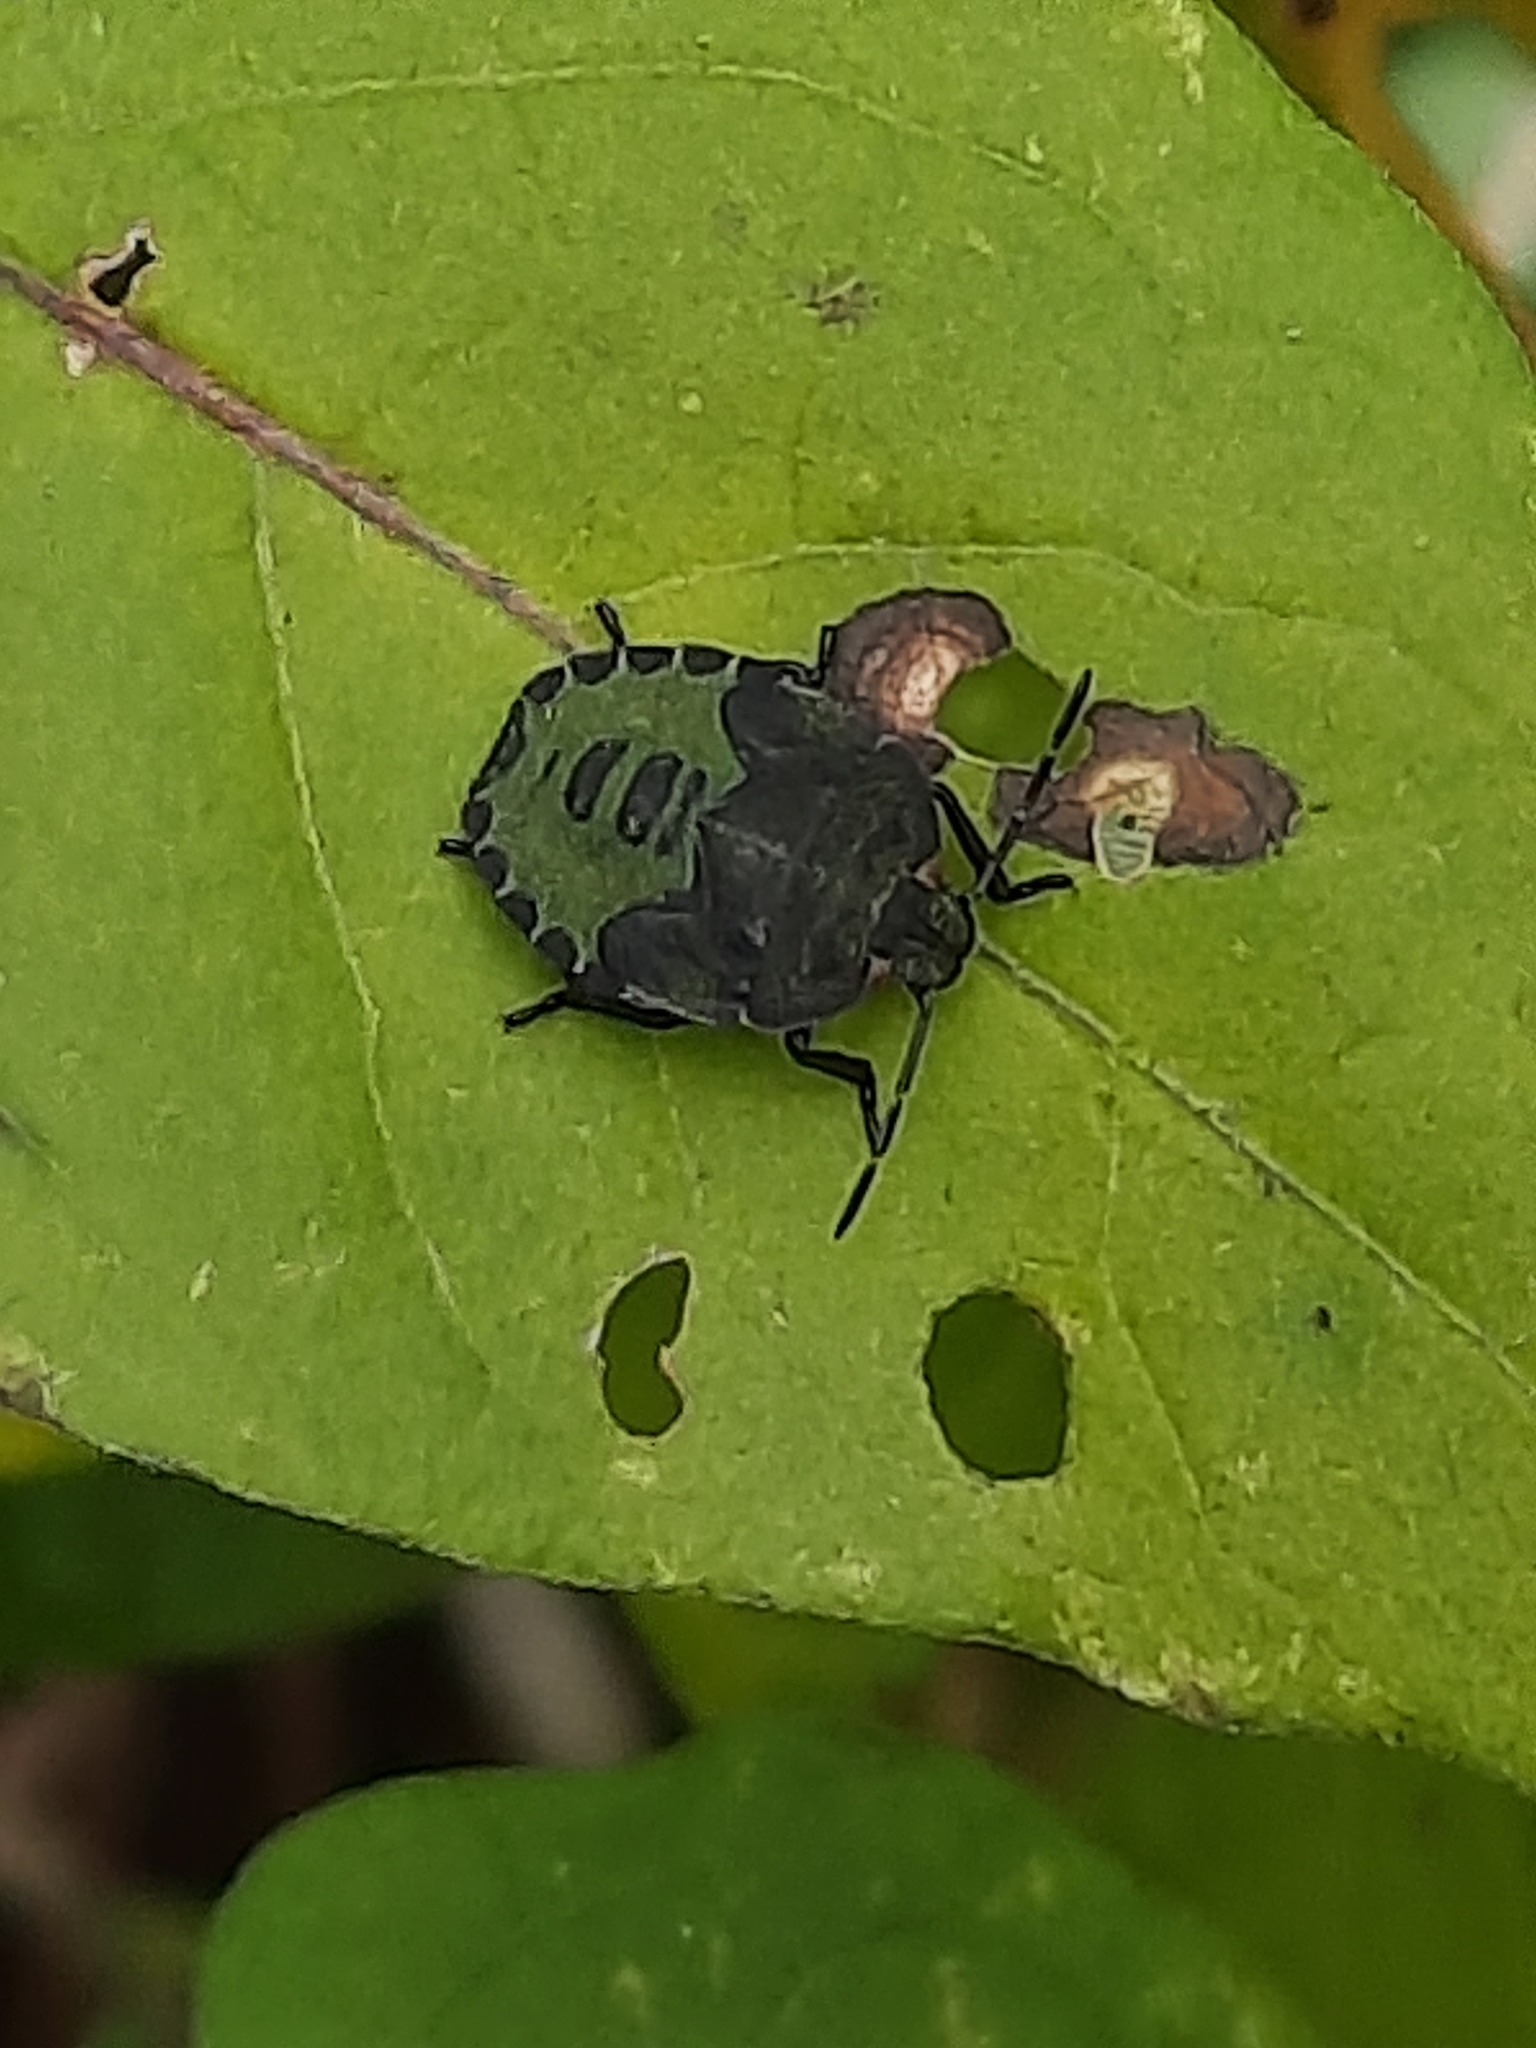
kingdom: Animalia
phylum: Arthropoda
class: Insecta
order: Hemiptera
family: Pentatomidae
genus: Palomena
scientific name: Palomena prasina
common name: Green shieldbug
